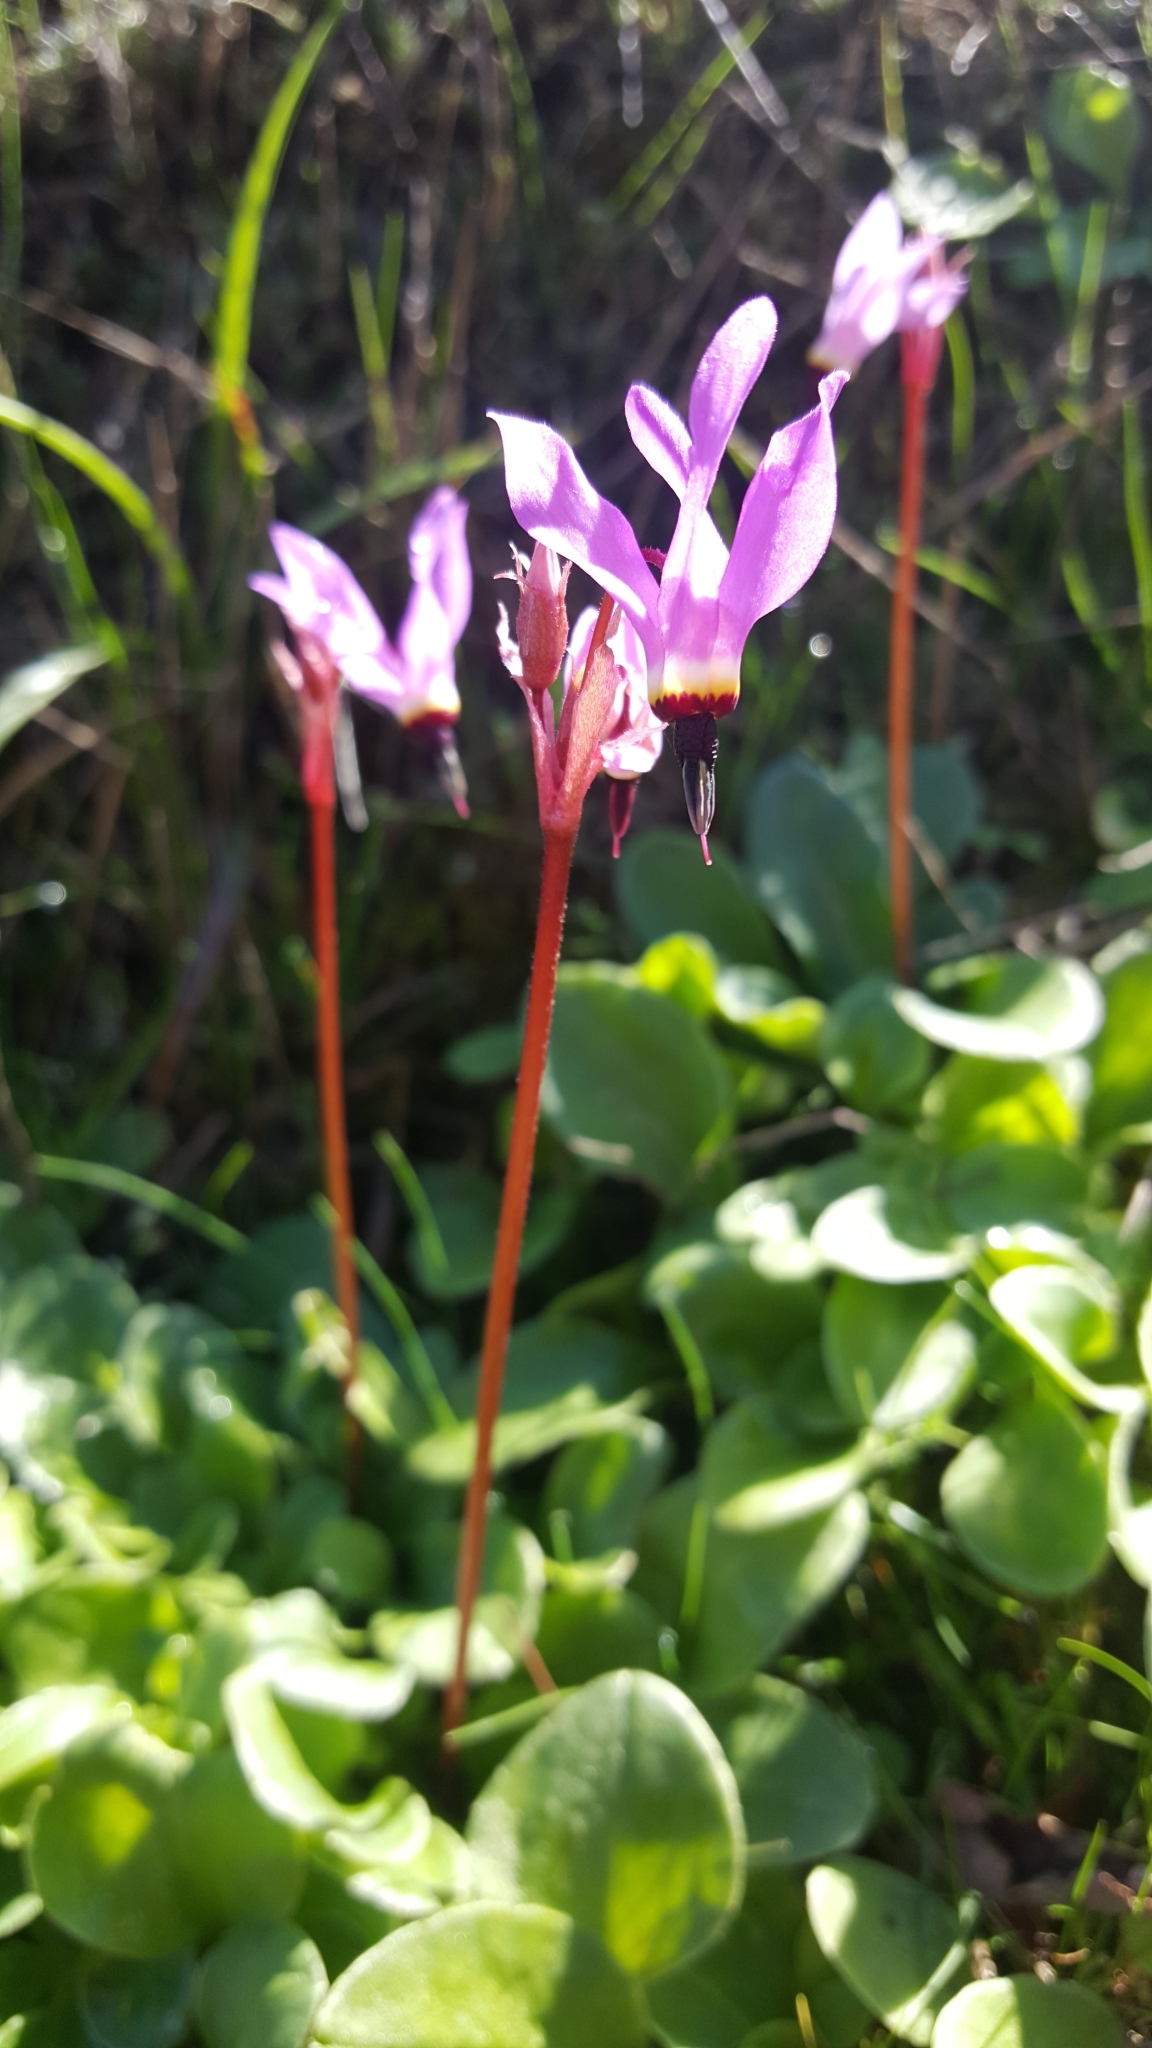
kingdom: Plantae
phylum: Tracheophyta
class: Magnoliopsida
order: Ericales
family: Primulaceae
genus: Dodecatheon
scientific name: Dodecatheon hendersonii
